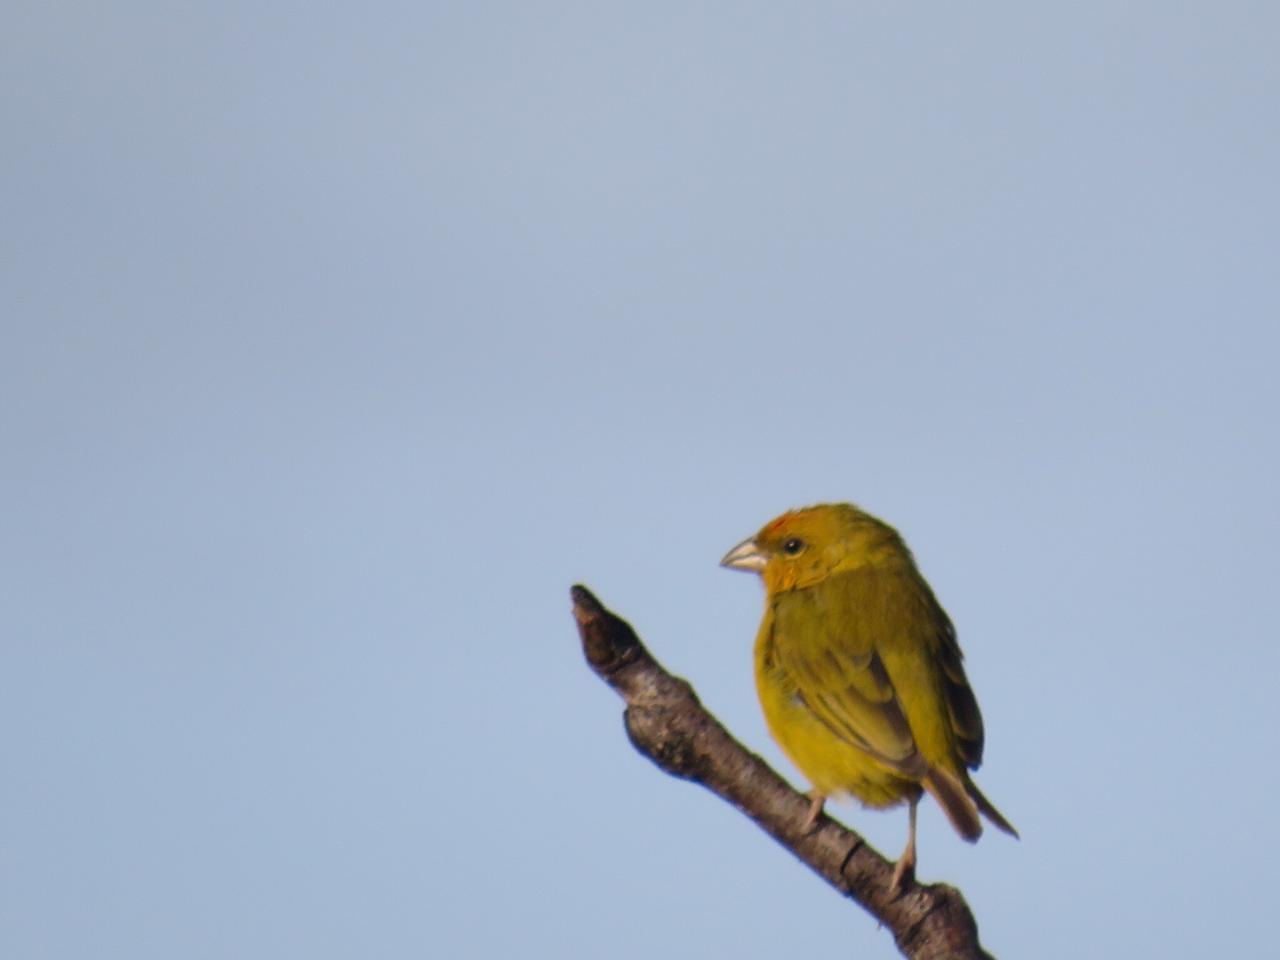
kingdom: Animalia
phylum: Chordata
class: Aves
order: Passeriformes
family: Thraupidae
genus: Sicalis
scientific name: Sicalis columbiana
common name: Orange-fronted yellow-finch
